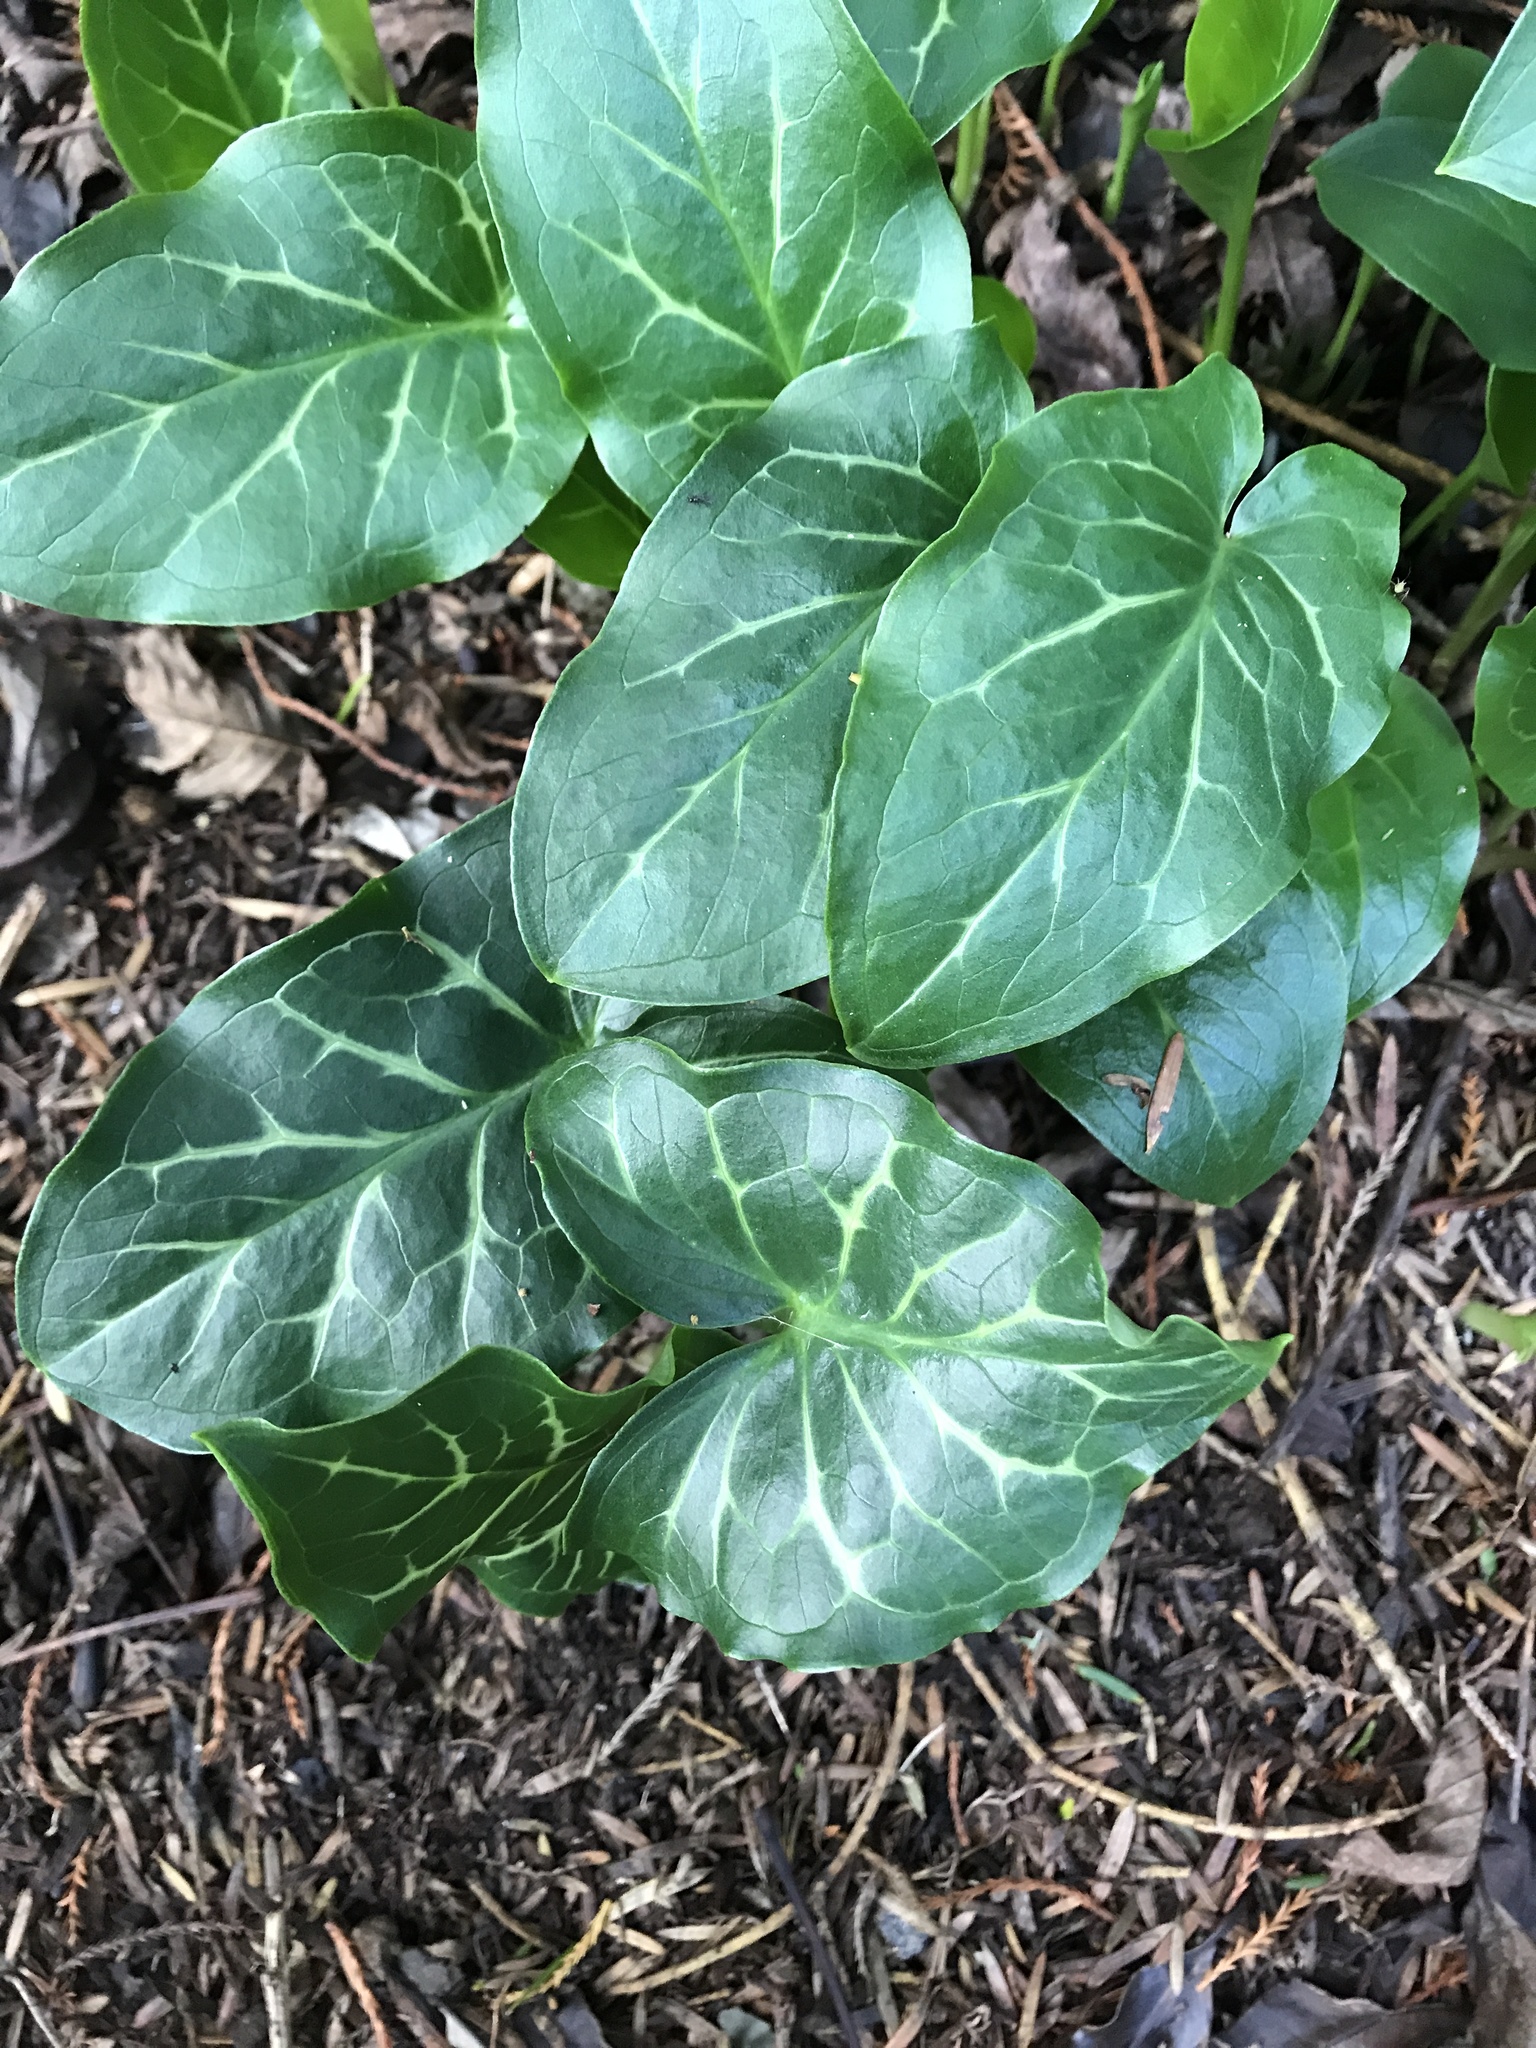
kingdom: Plantae
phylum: Tracheophyta
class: Liliopsida
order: Alismatales
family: Araceae
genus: Arum
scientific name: Arum italicum
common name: Italian lords-and-ladies
